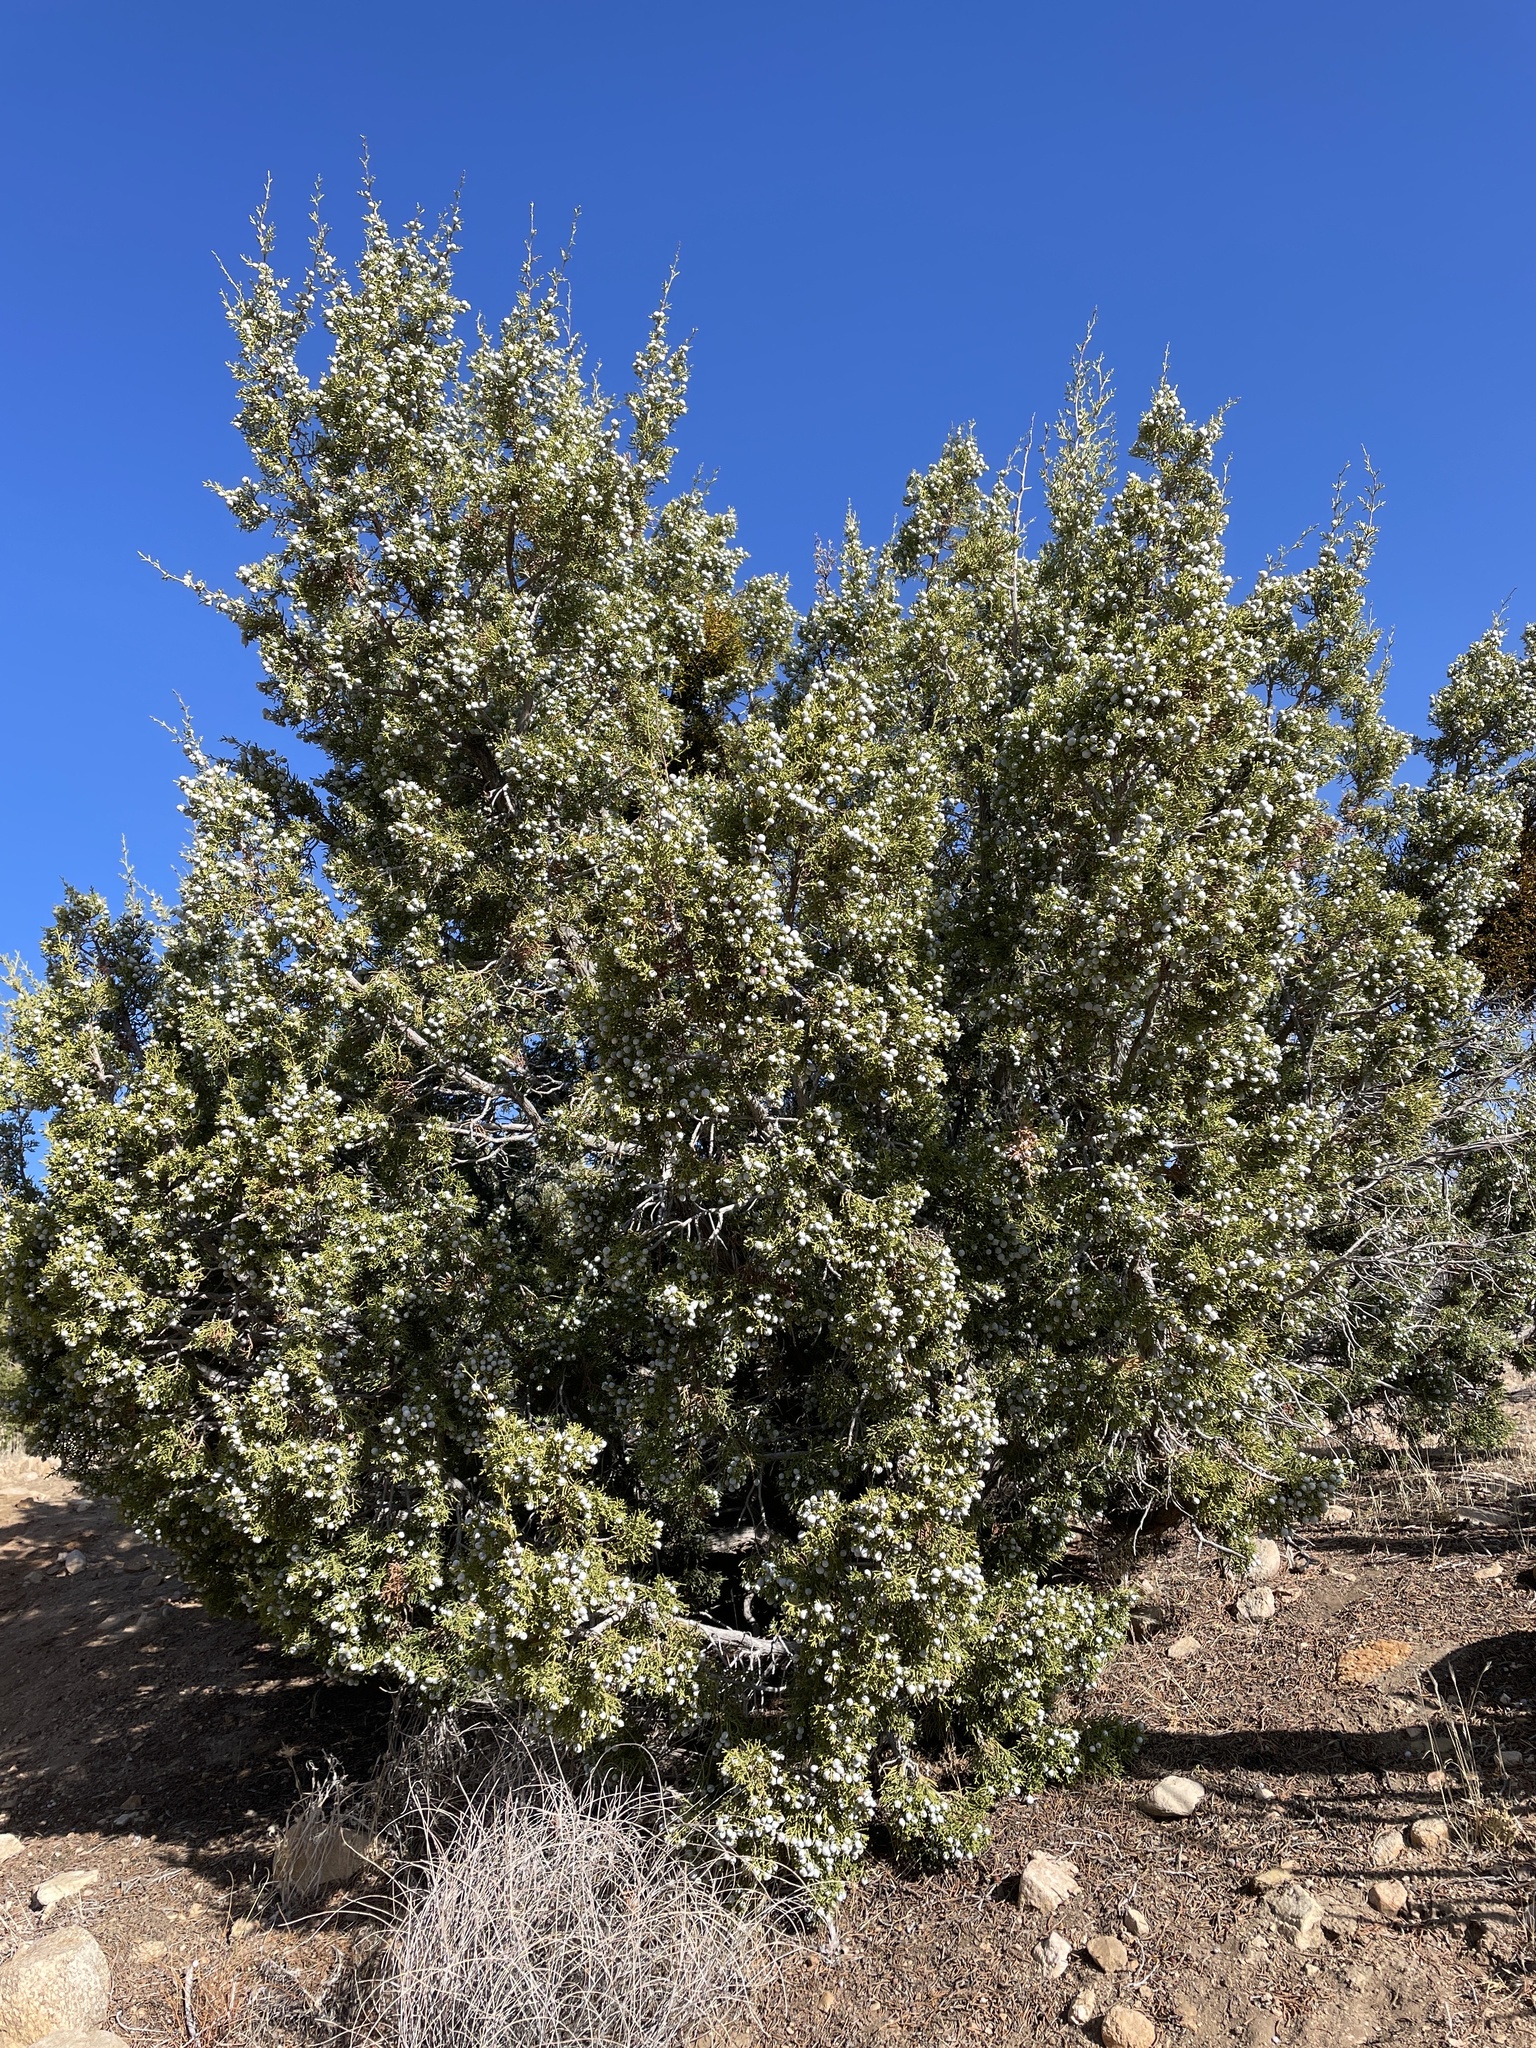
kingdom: Plantae
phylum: Tracheophyta
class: Pinopsida
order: Pinales
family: Cupressaceae
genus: Juniperus
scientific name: Juniperus californica
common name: California juniper
